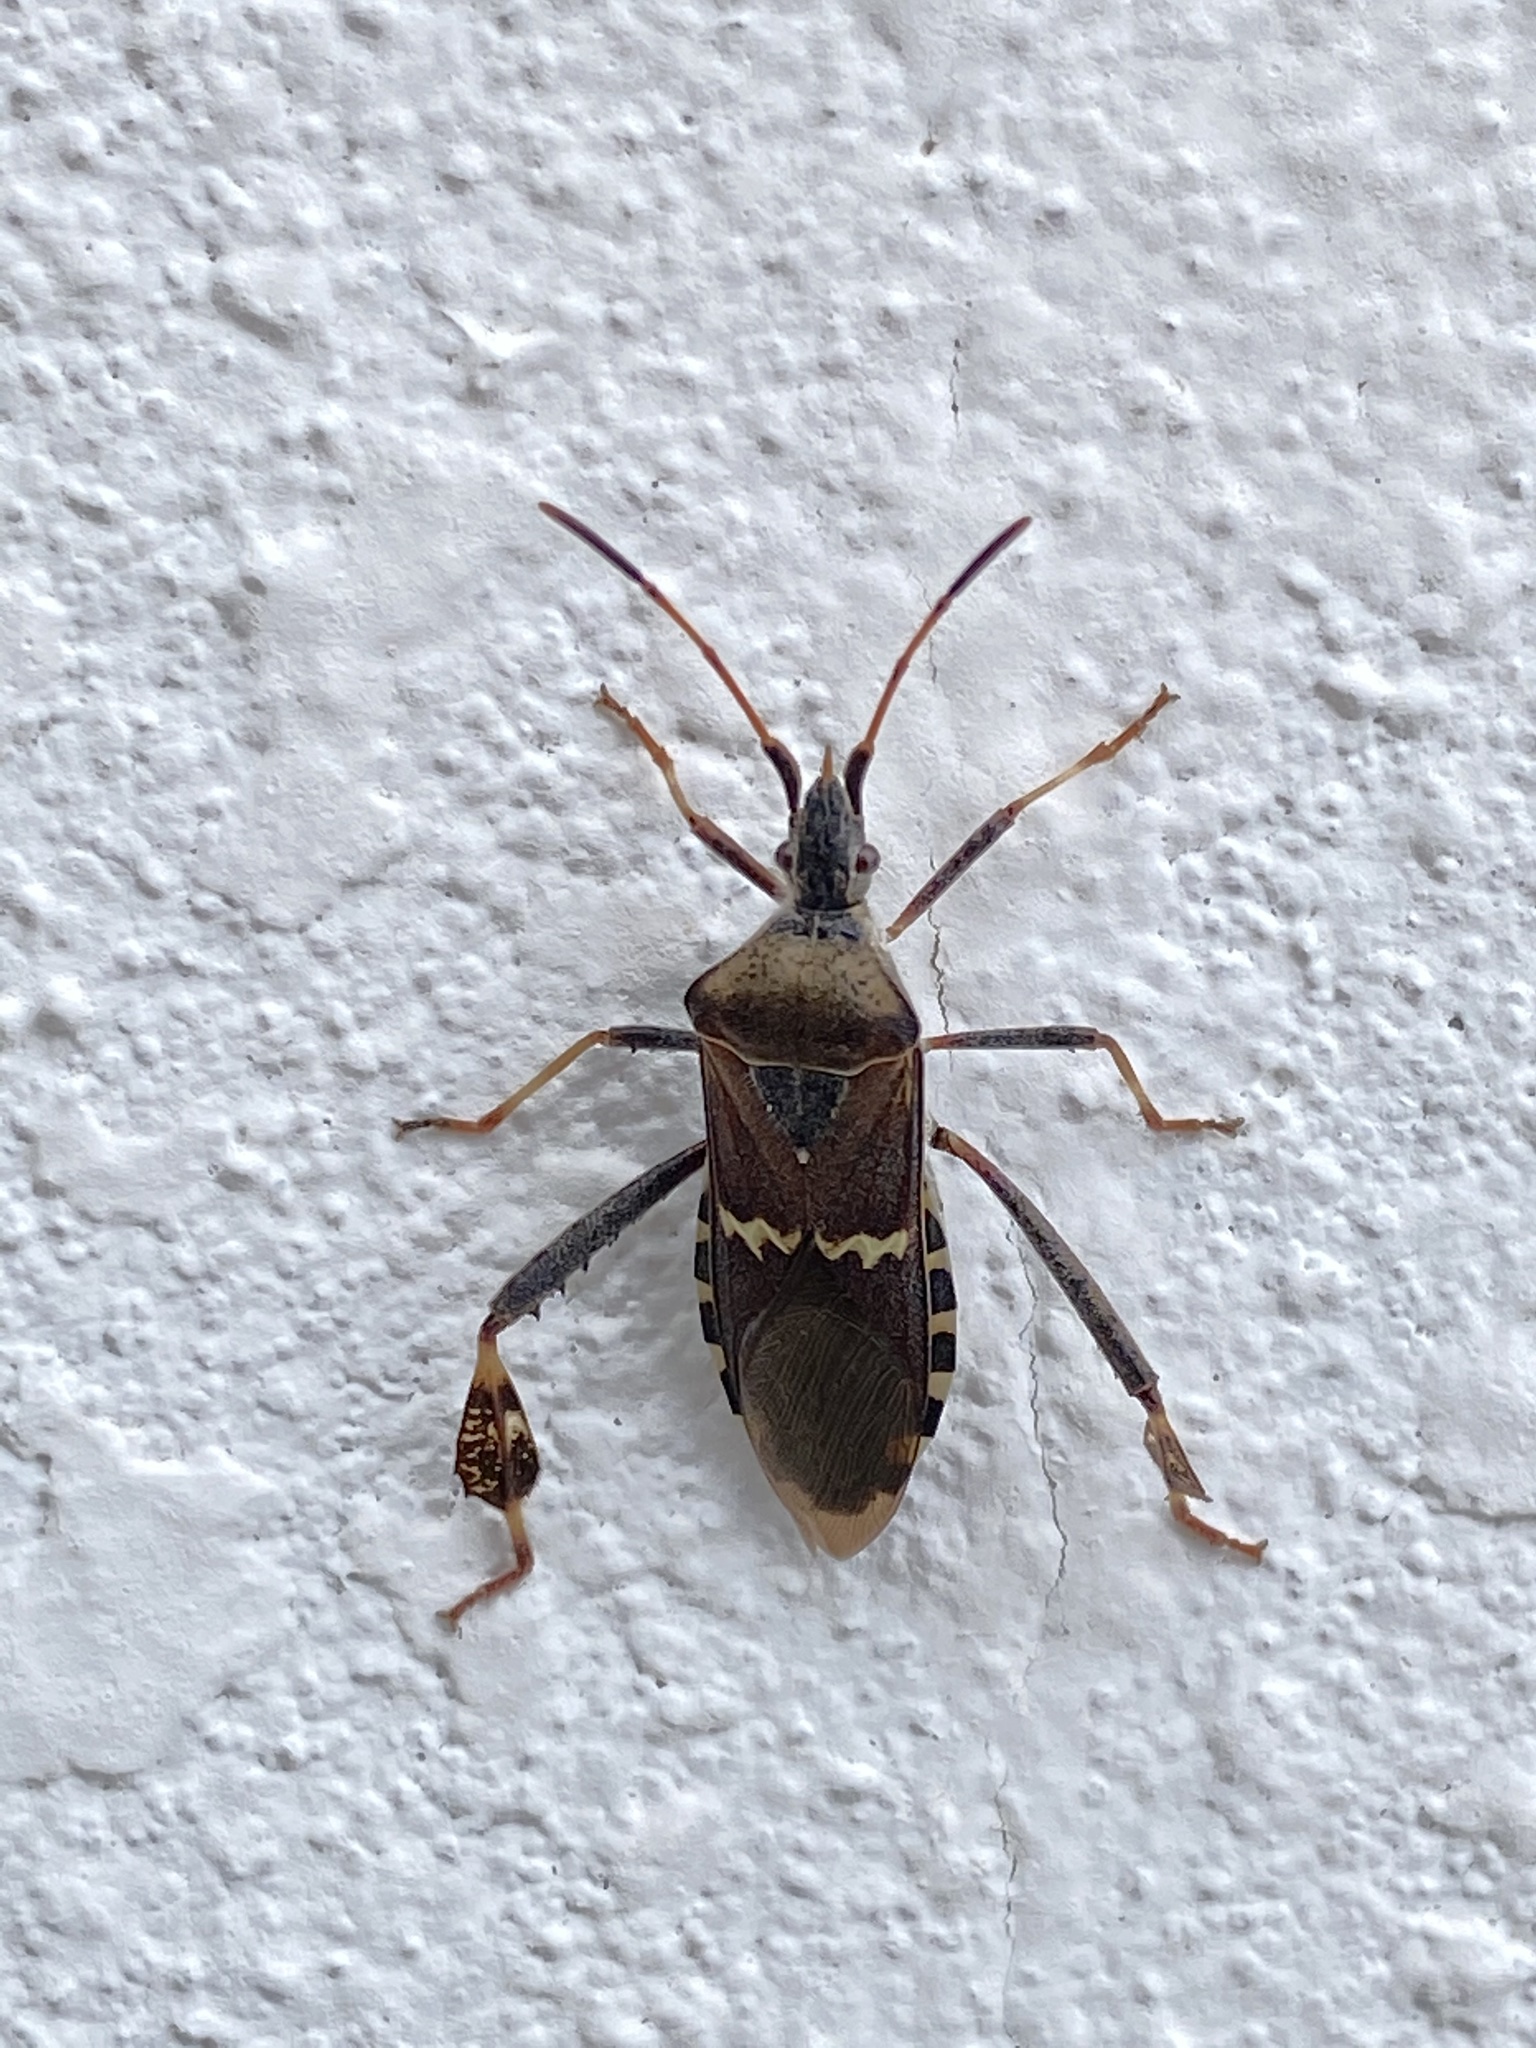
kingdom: Animalia
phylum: Arthropoda
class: Insecta
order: Hemiptera
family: Coreidae
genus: Leptoglossus
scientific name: Leptoglossus clypealis
